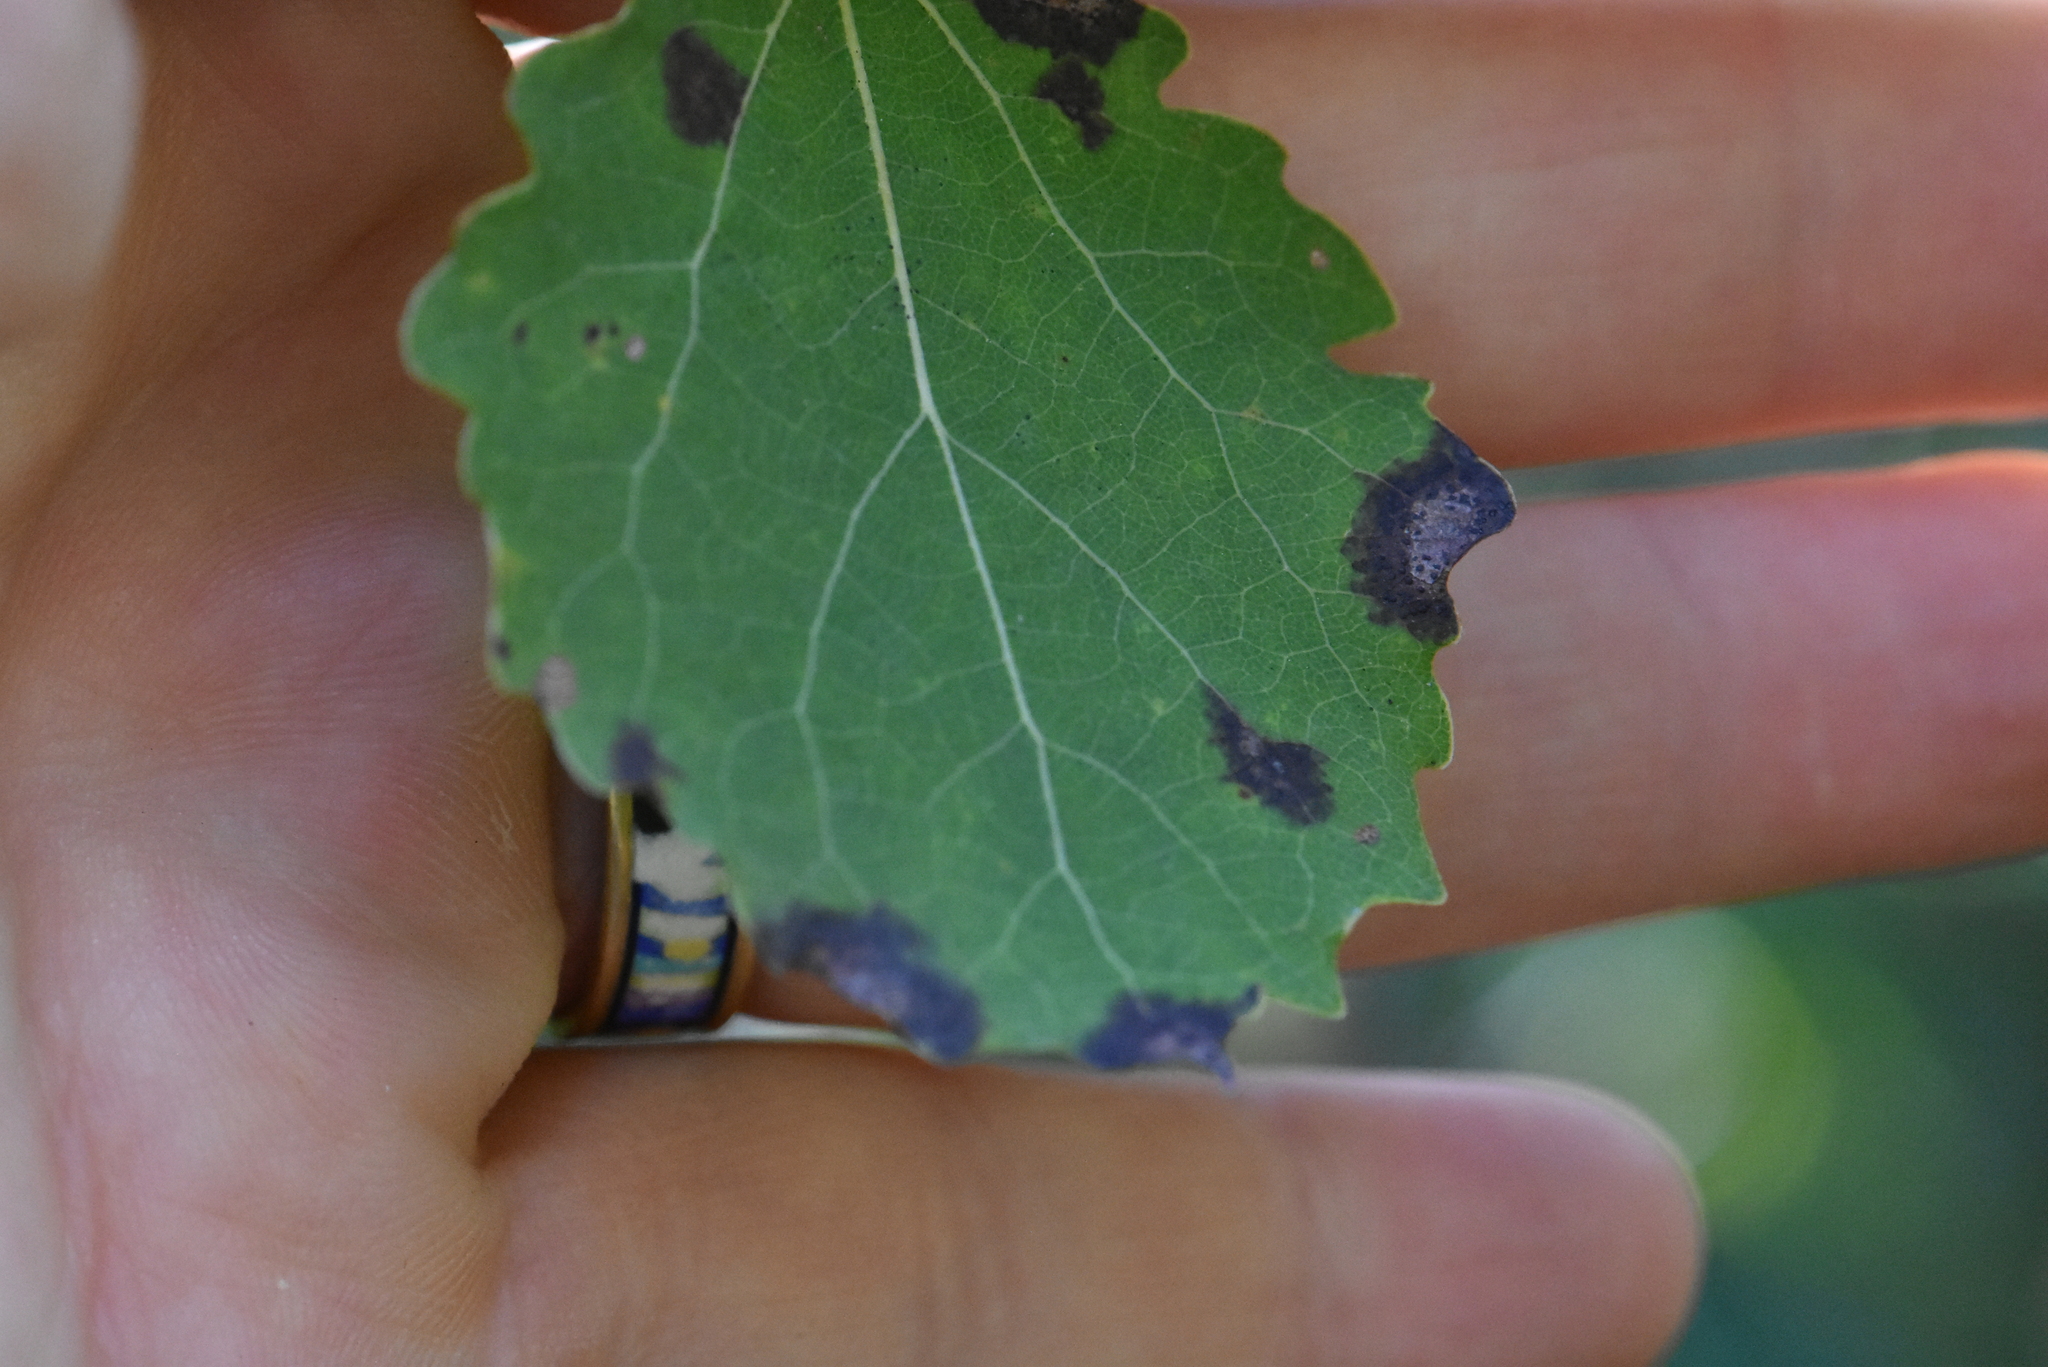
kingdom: Plantae
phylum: Tracheophyta
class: Magnoliopsida
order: Malpighiales
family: Salicaceae
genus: Populus
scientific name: Populus tremula
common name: European aspen
